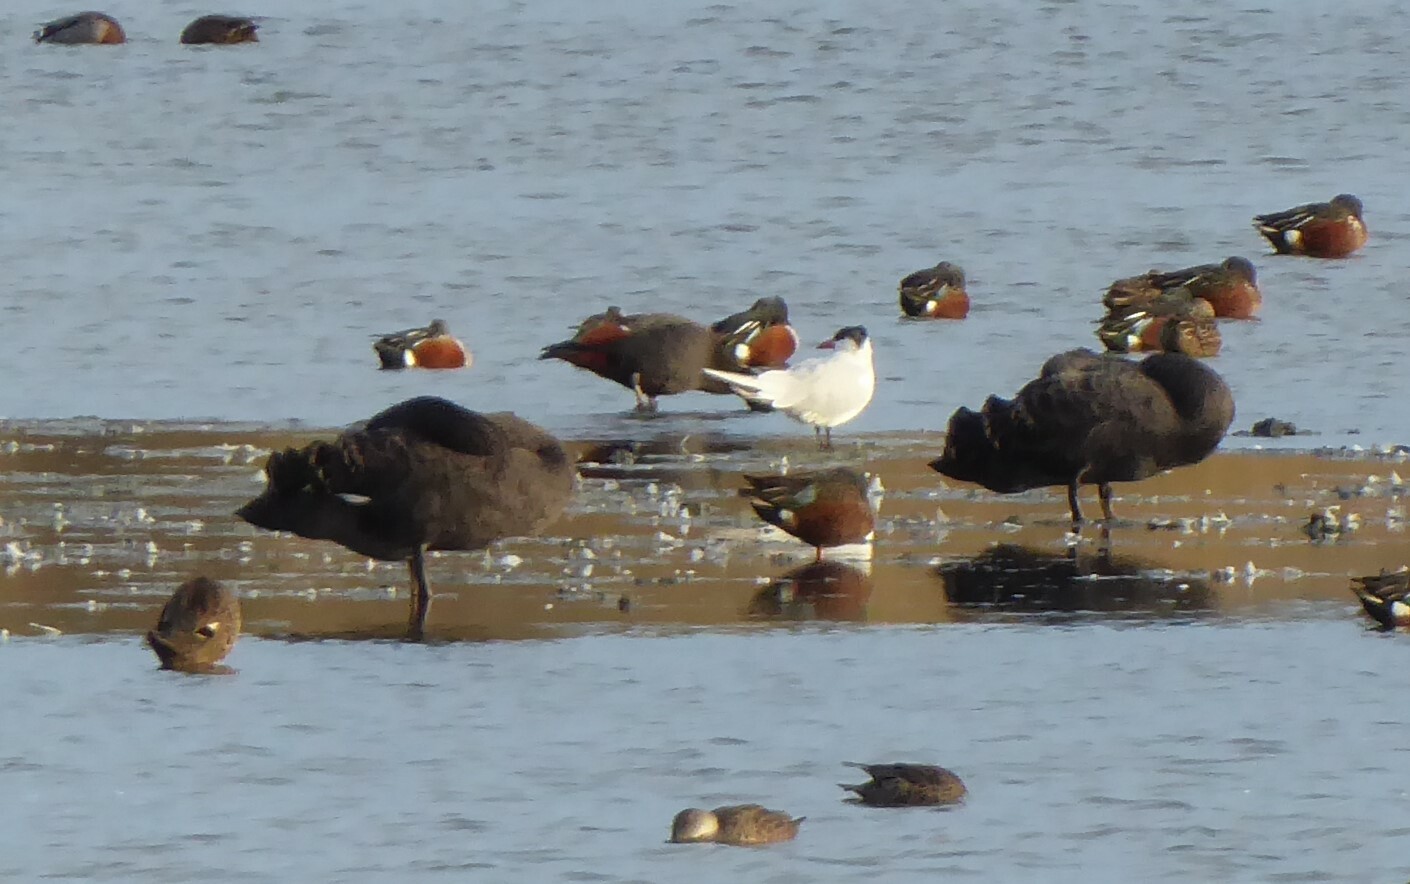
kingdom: Animalia
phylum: Chordata
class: Aves
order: Charadriiformes
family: Laridae
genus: Hydroprogne
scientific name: Hydroprogne caspia
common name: Caspian tern
